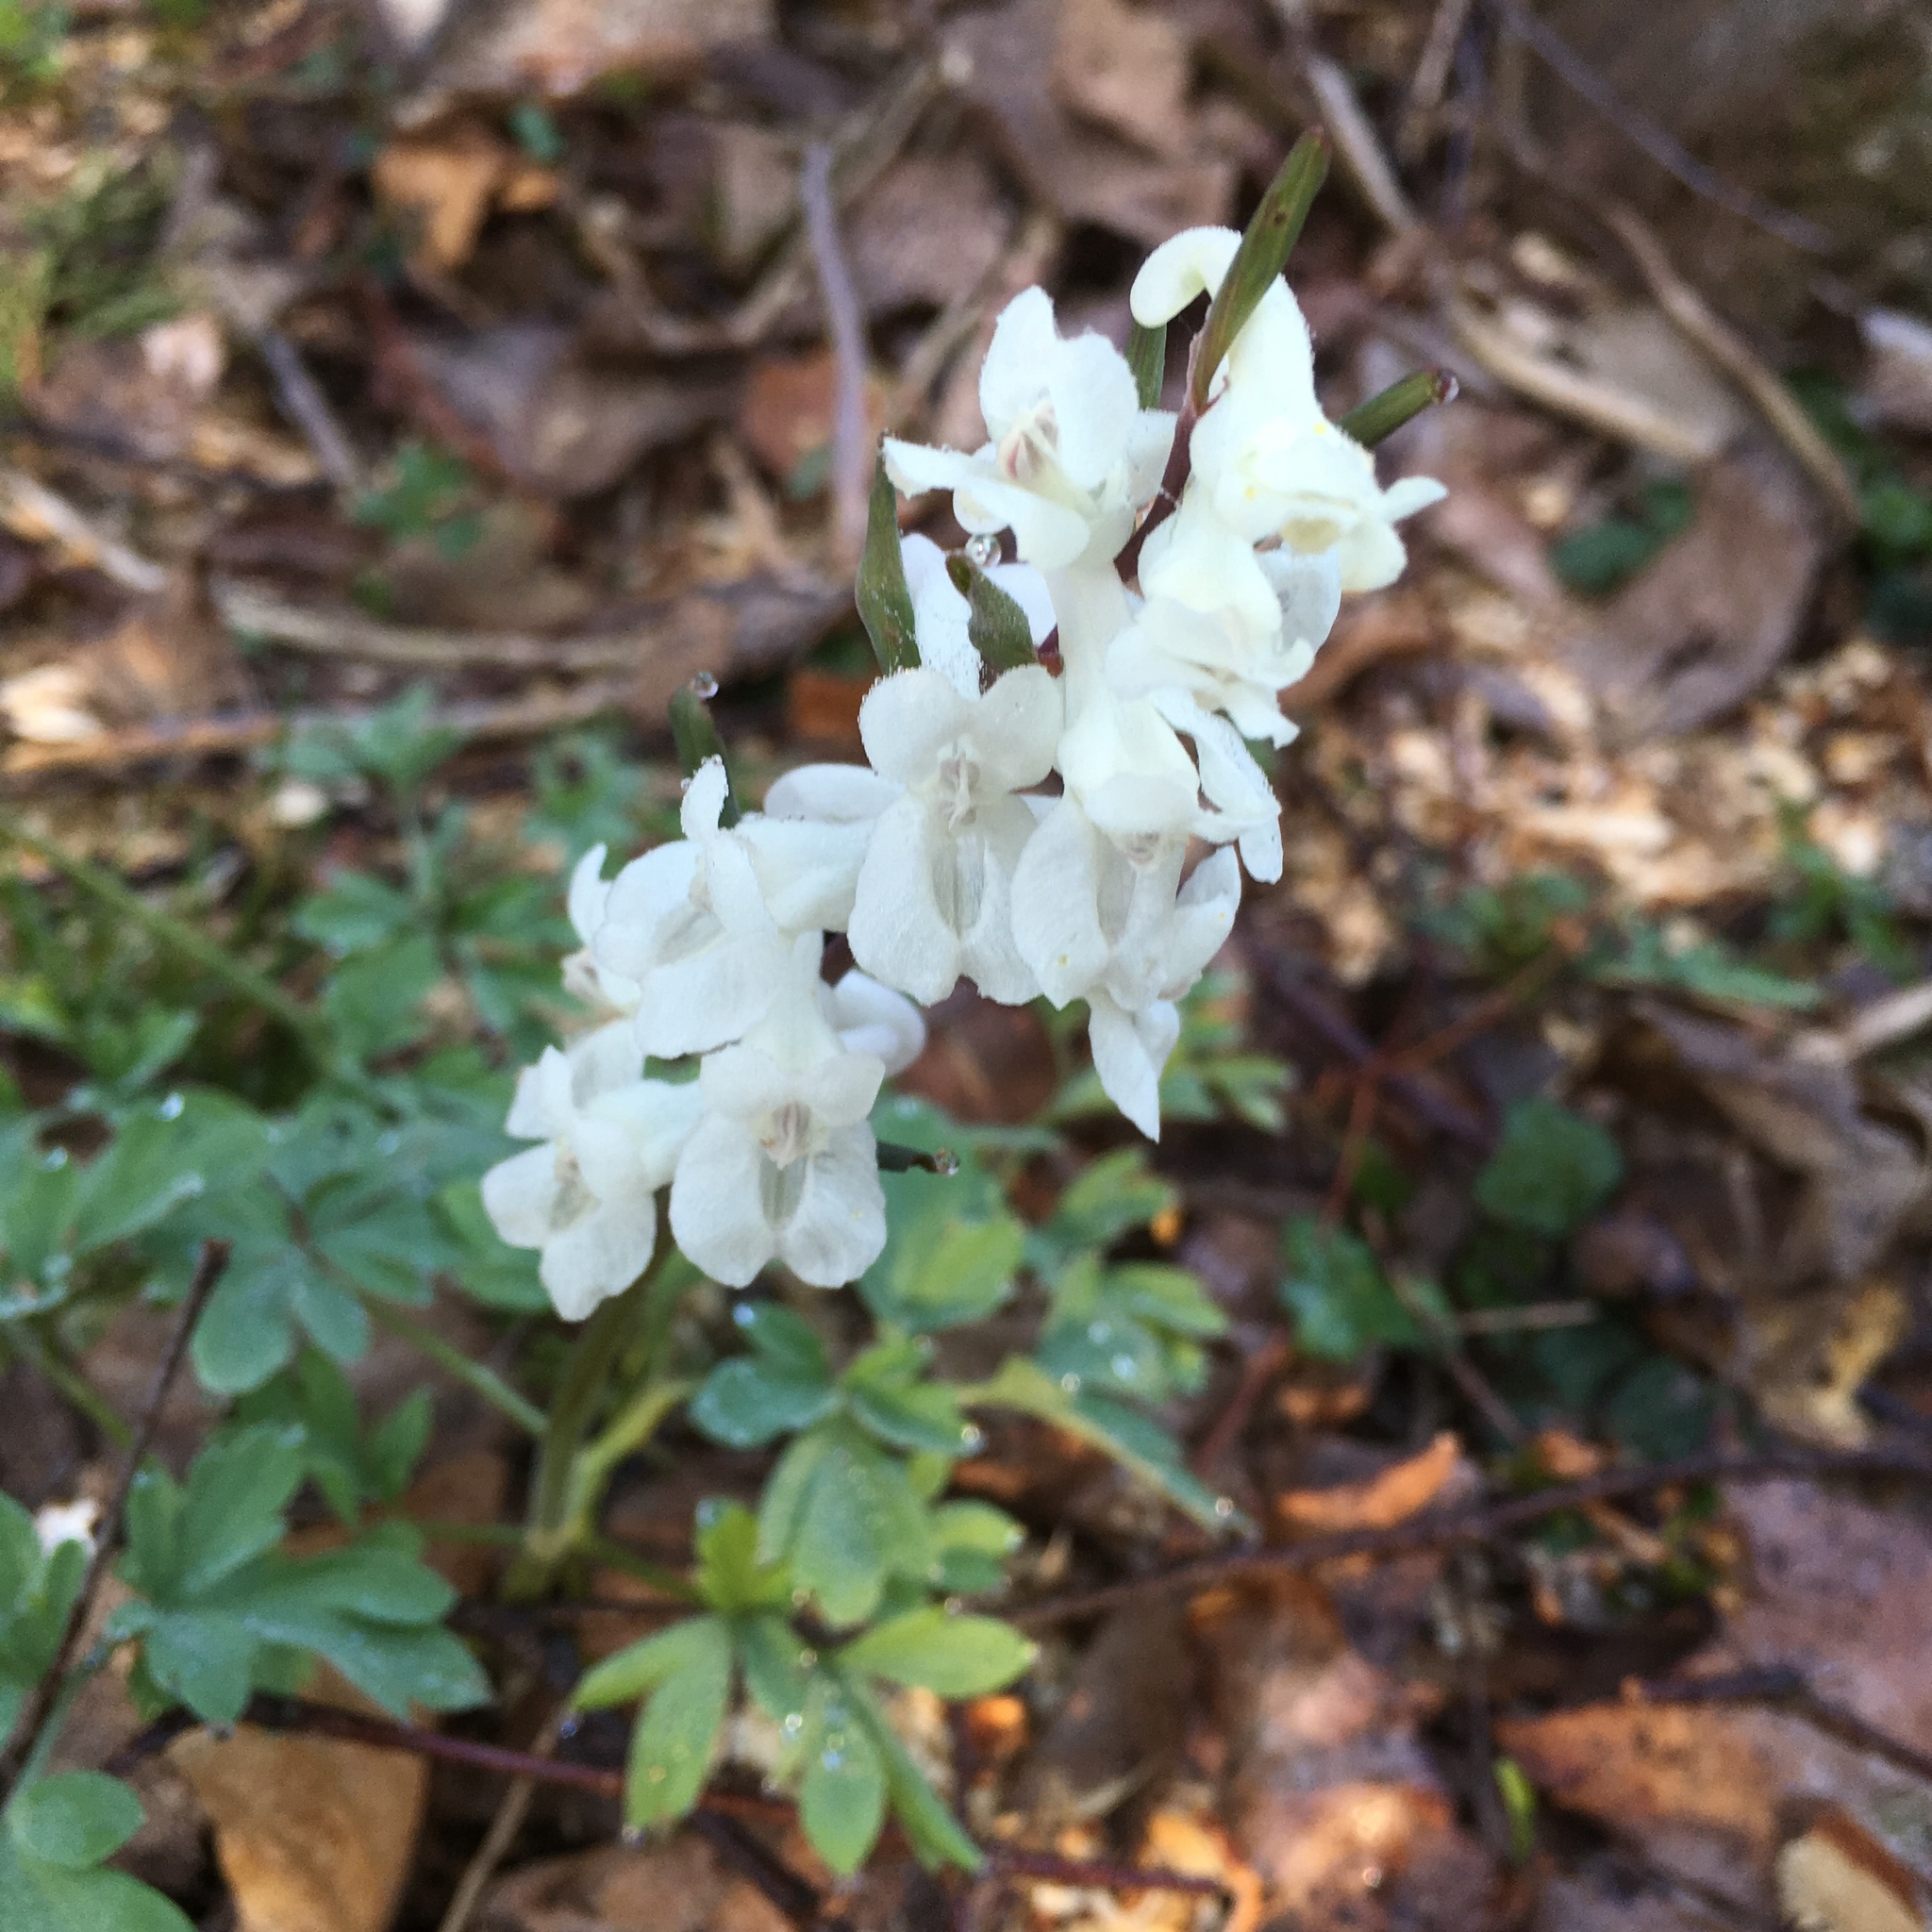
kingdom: Plantae
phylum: Tracheophyta
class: Magnoliopsida
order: Ranunculales
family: Papaveraceae
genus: Corydalis
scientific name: Corydalis cava
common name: Hollowroot
